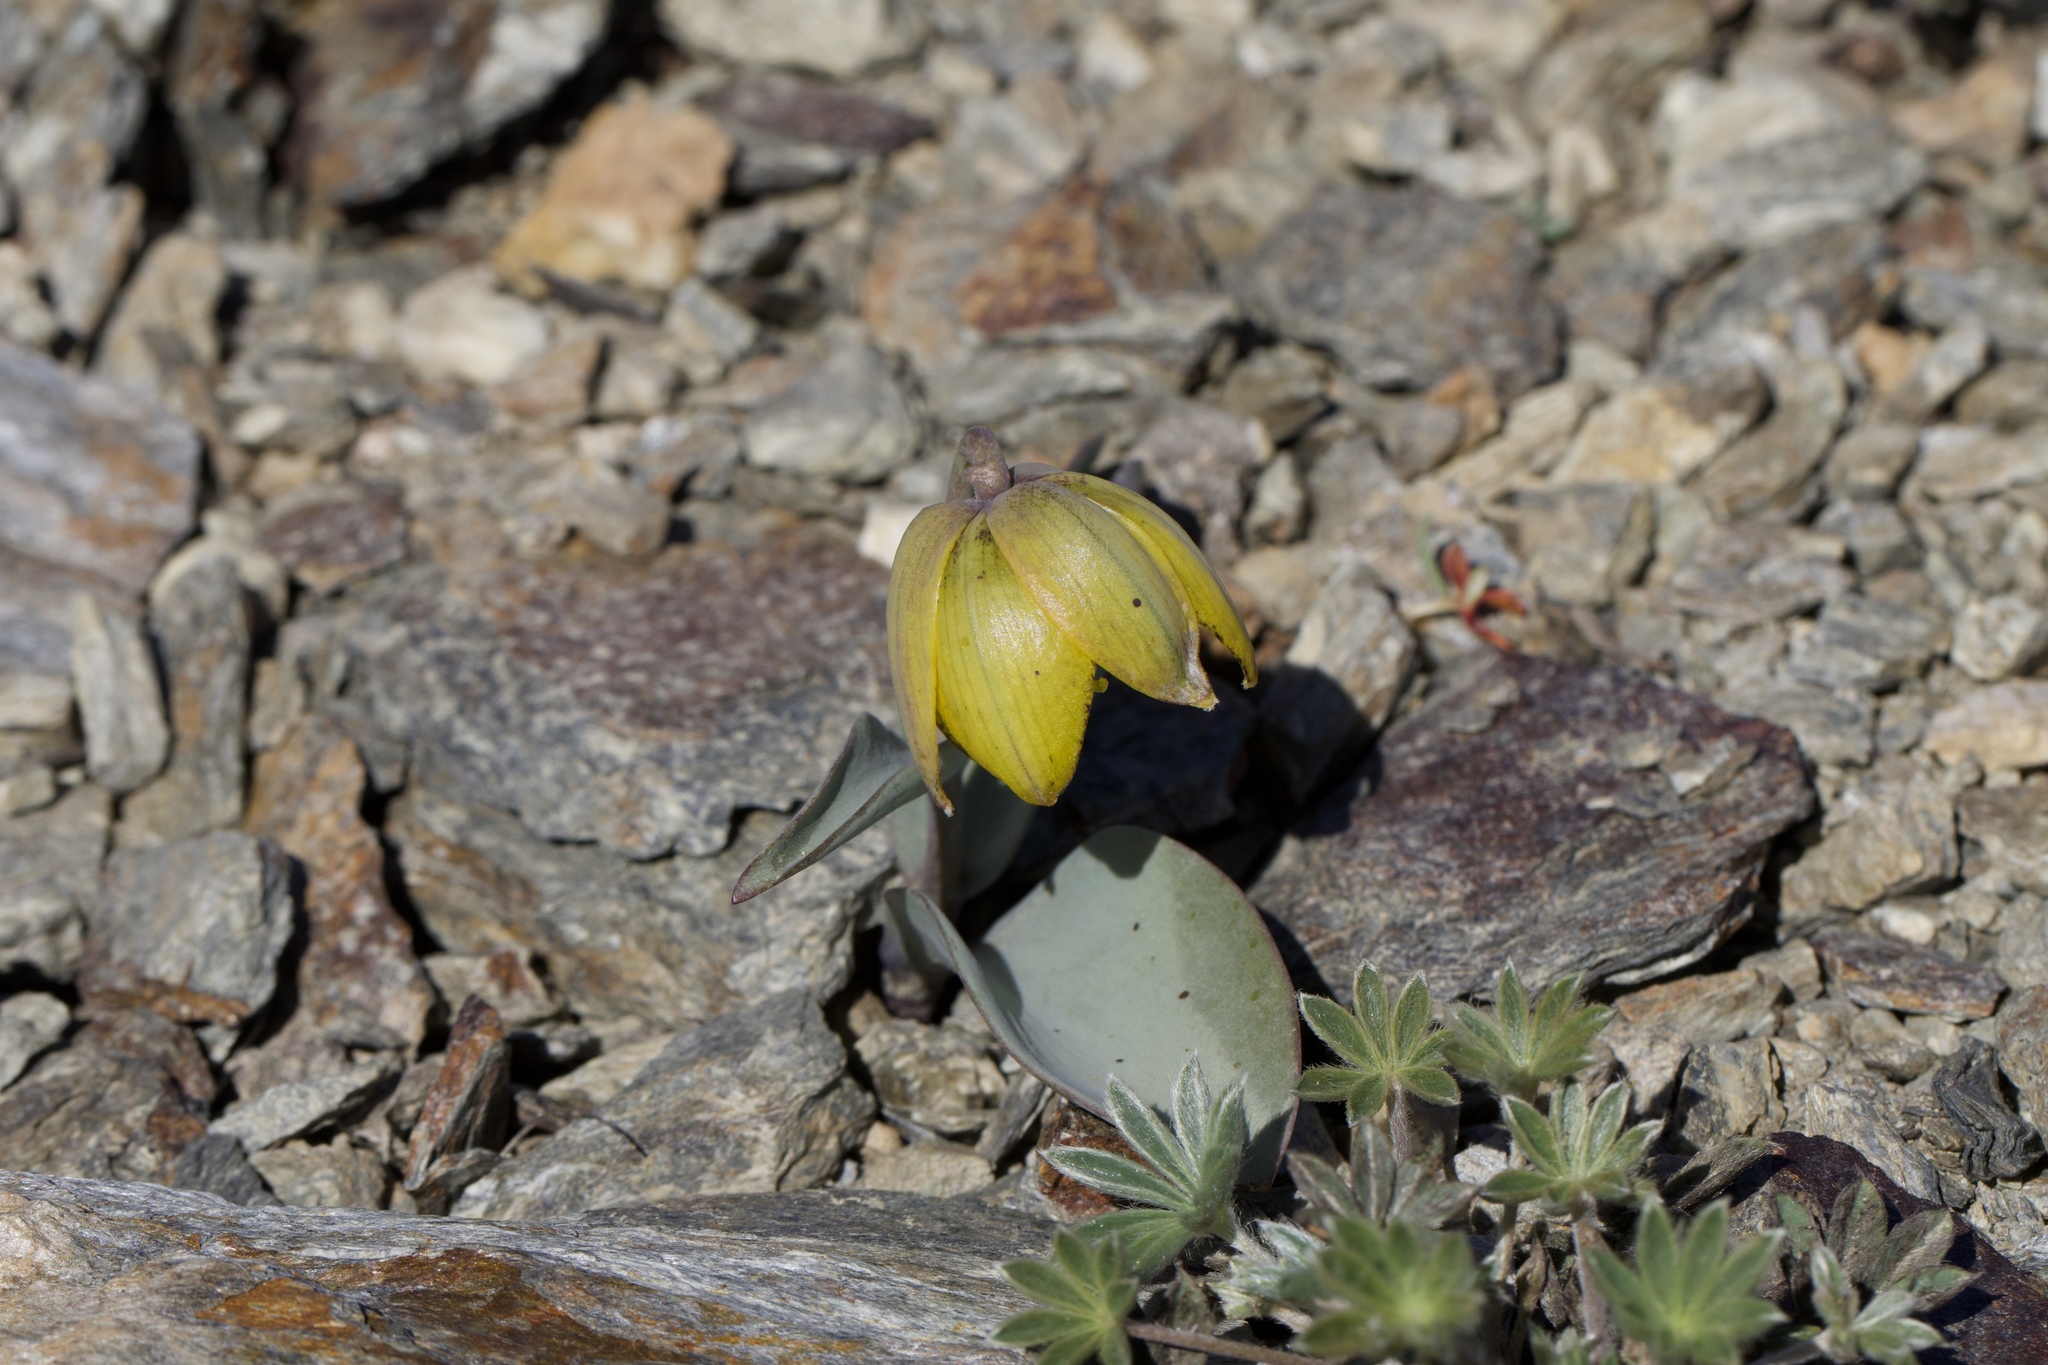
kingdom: Plantae
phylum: Tracheophyta
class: Liliopsida
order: Liliales
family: Liliaceae
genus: Fritillaria
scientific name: Fritillaria glauca
